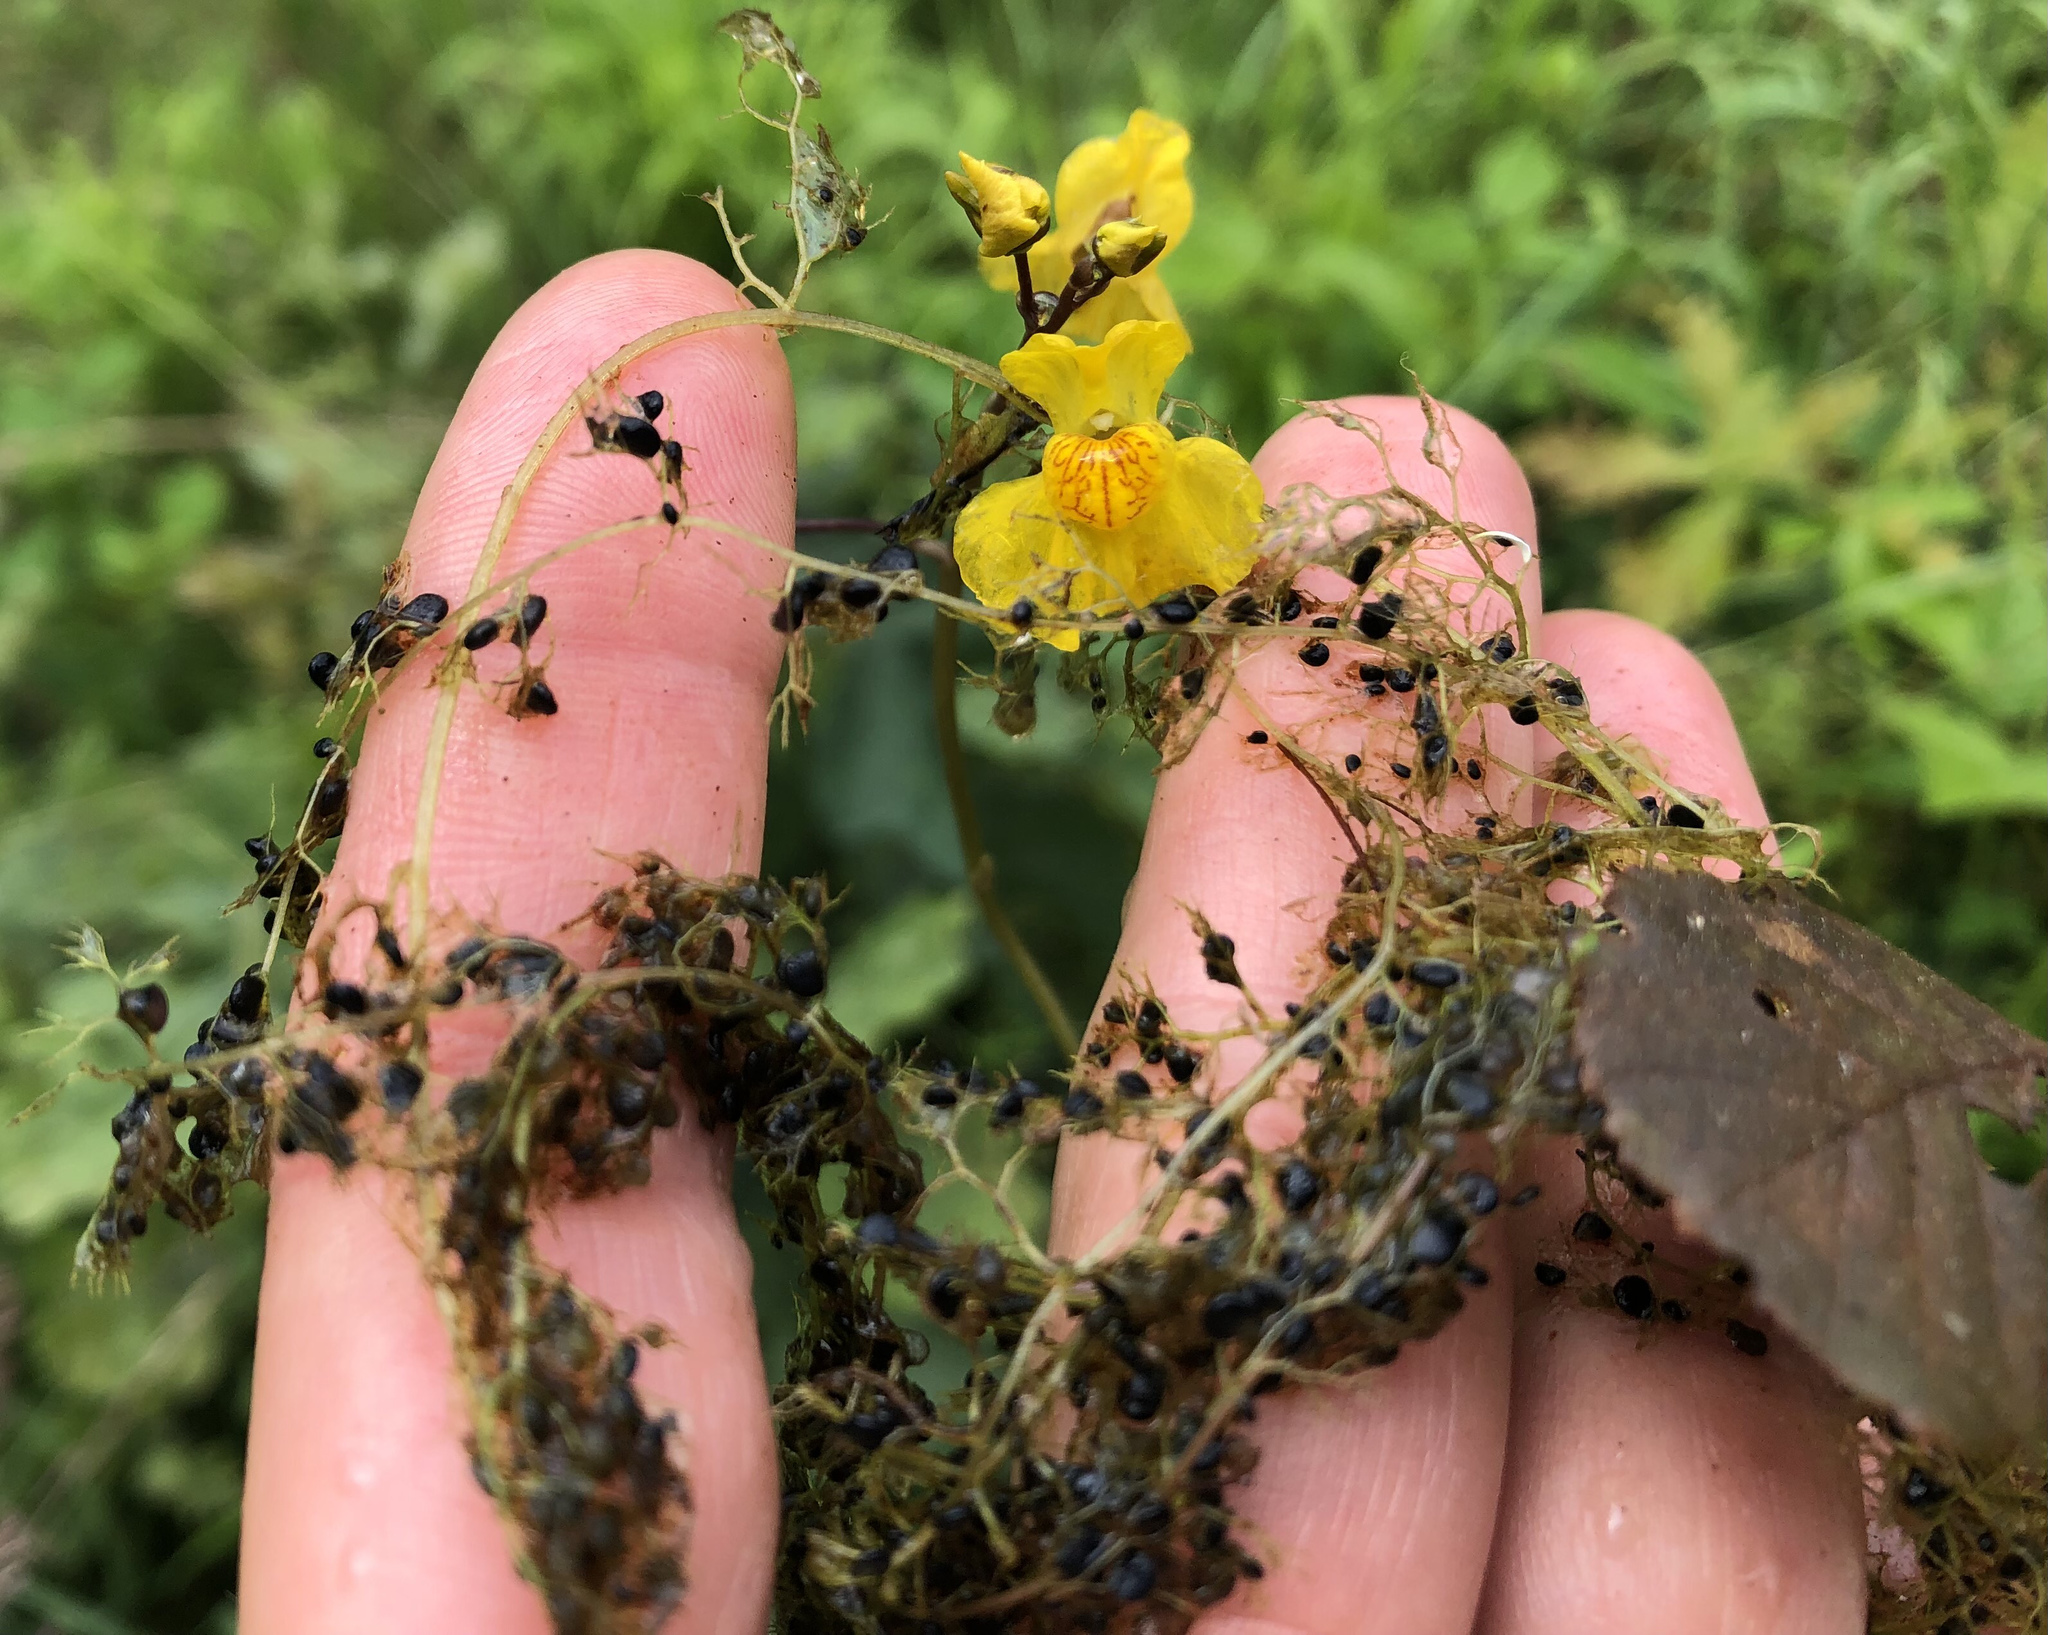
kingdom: Plantae
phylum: Tracheophyta
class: Magnoliopsida
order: Lamiales
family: Lentibulariaceae
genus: Utricularia
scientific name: Utricularia australis
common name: Bladderwort
